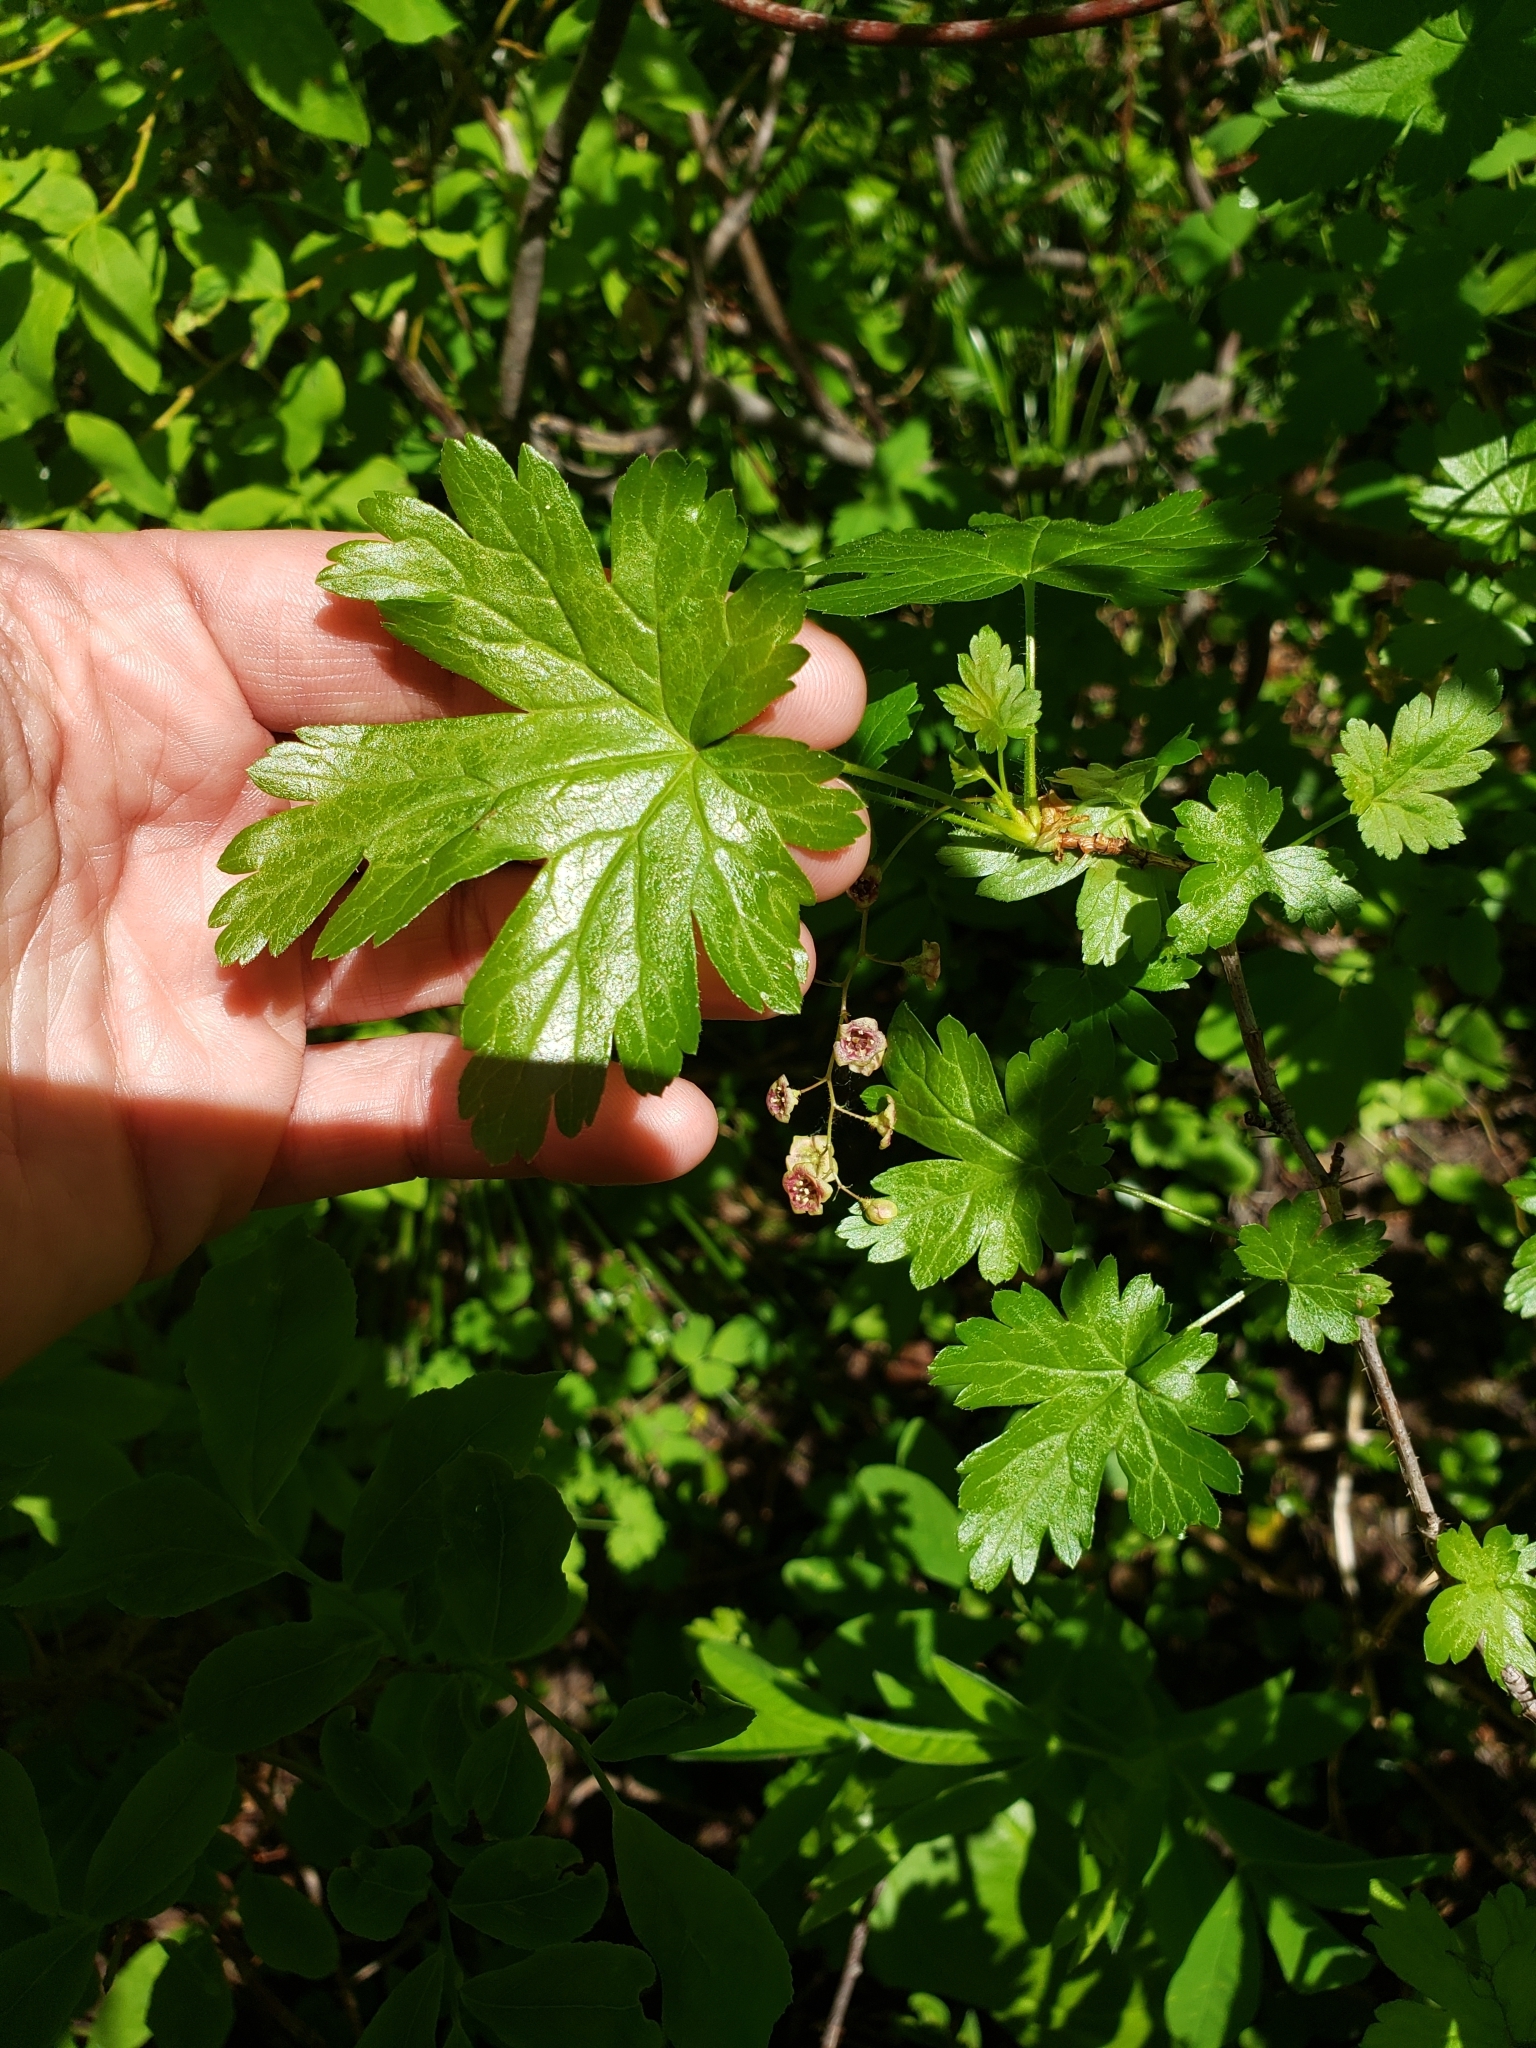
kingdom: Plantae
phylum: Tracheophyta
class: Magnoliopsida
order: Saxifragales
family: Grossulariaceae
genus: Ribes
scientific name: Ribes lacustre
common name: Black gooseberry
